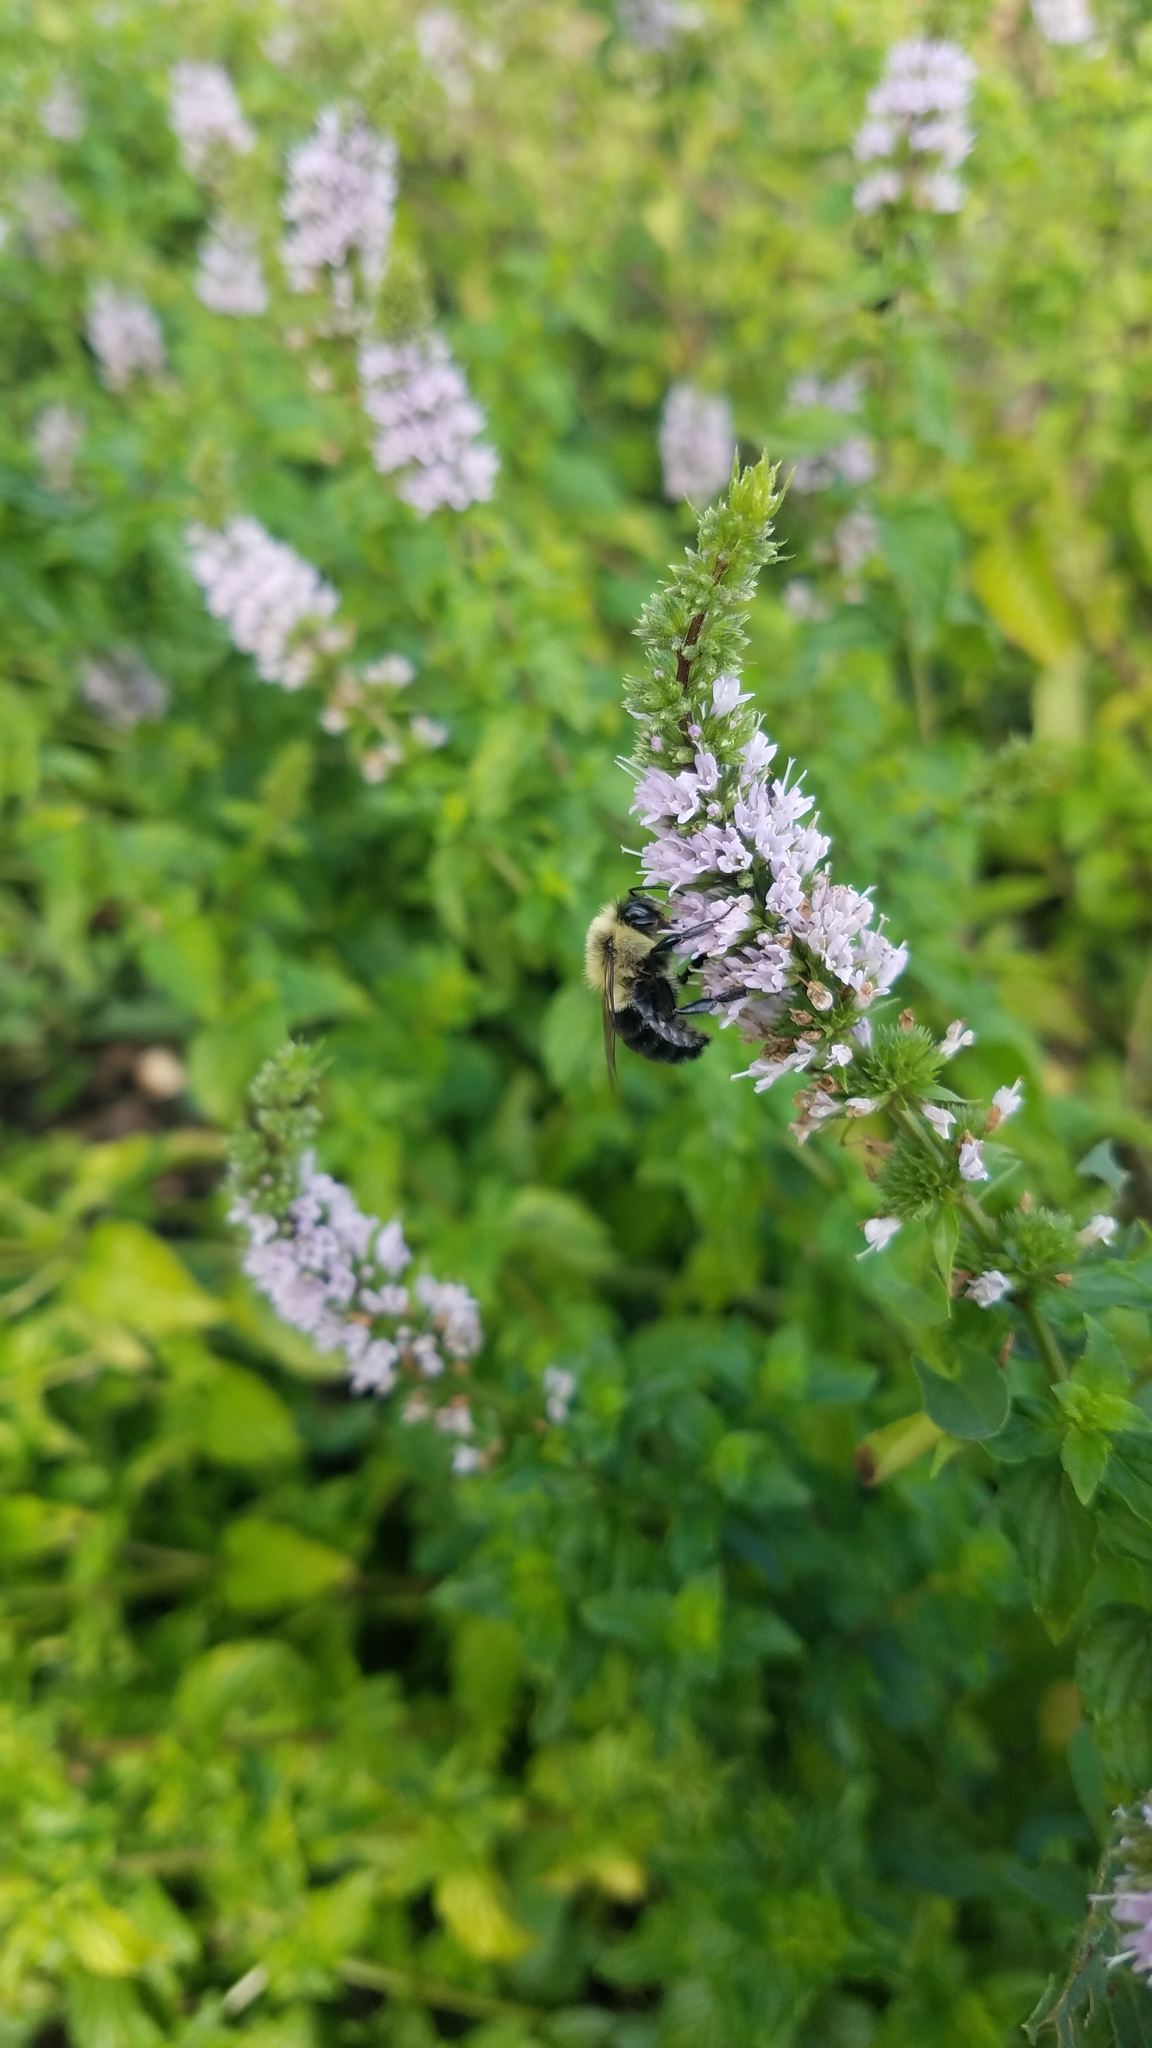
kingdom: Animalia
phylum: Arthropoda
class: Insecta
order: Hymenoptera
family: Apidae
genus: Bombus
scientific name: Bombus impatiens
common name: Common eastern bumble bee
